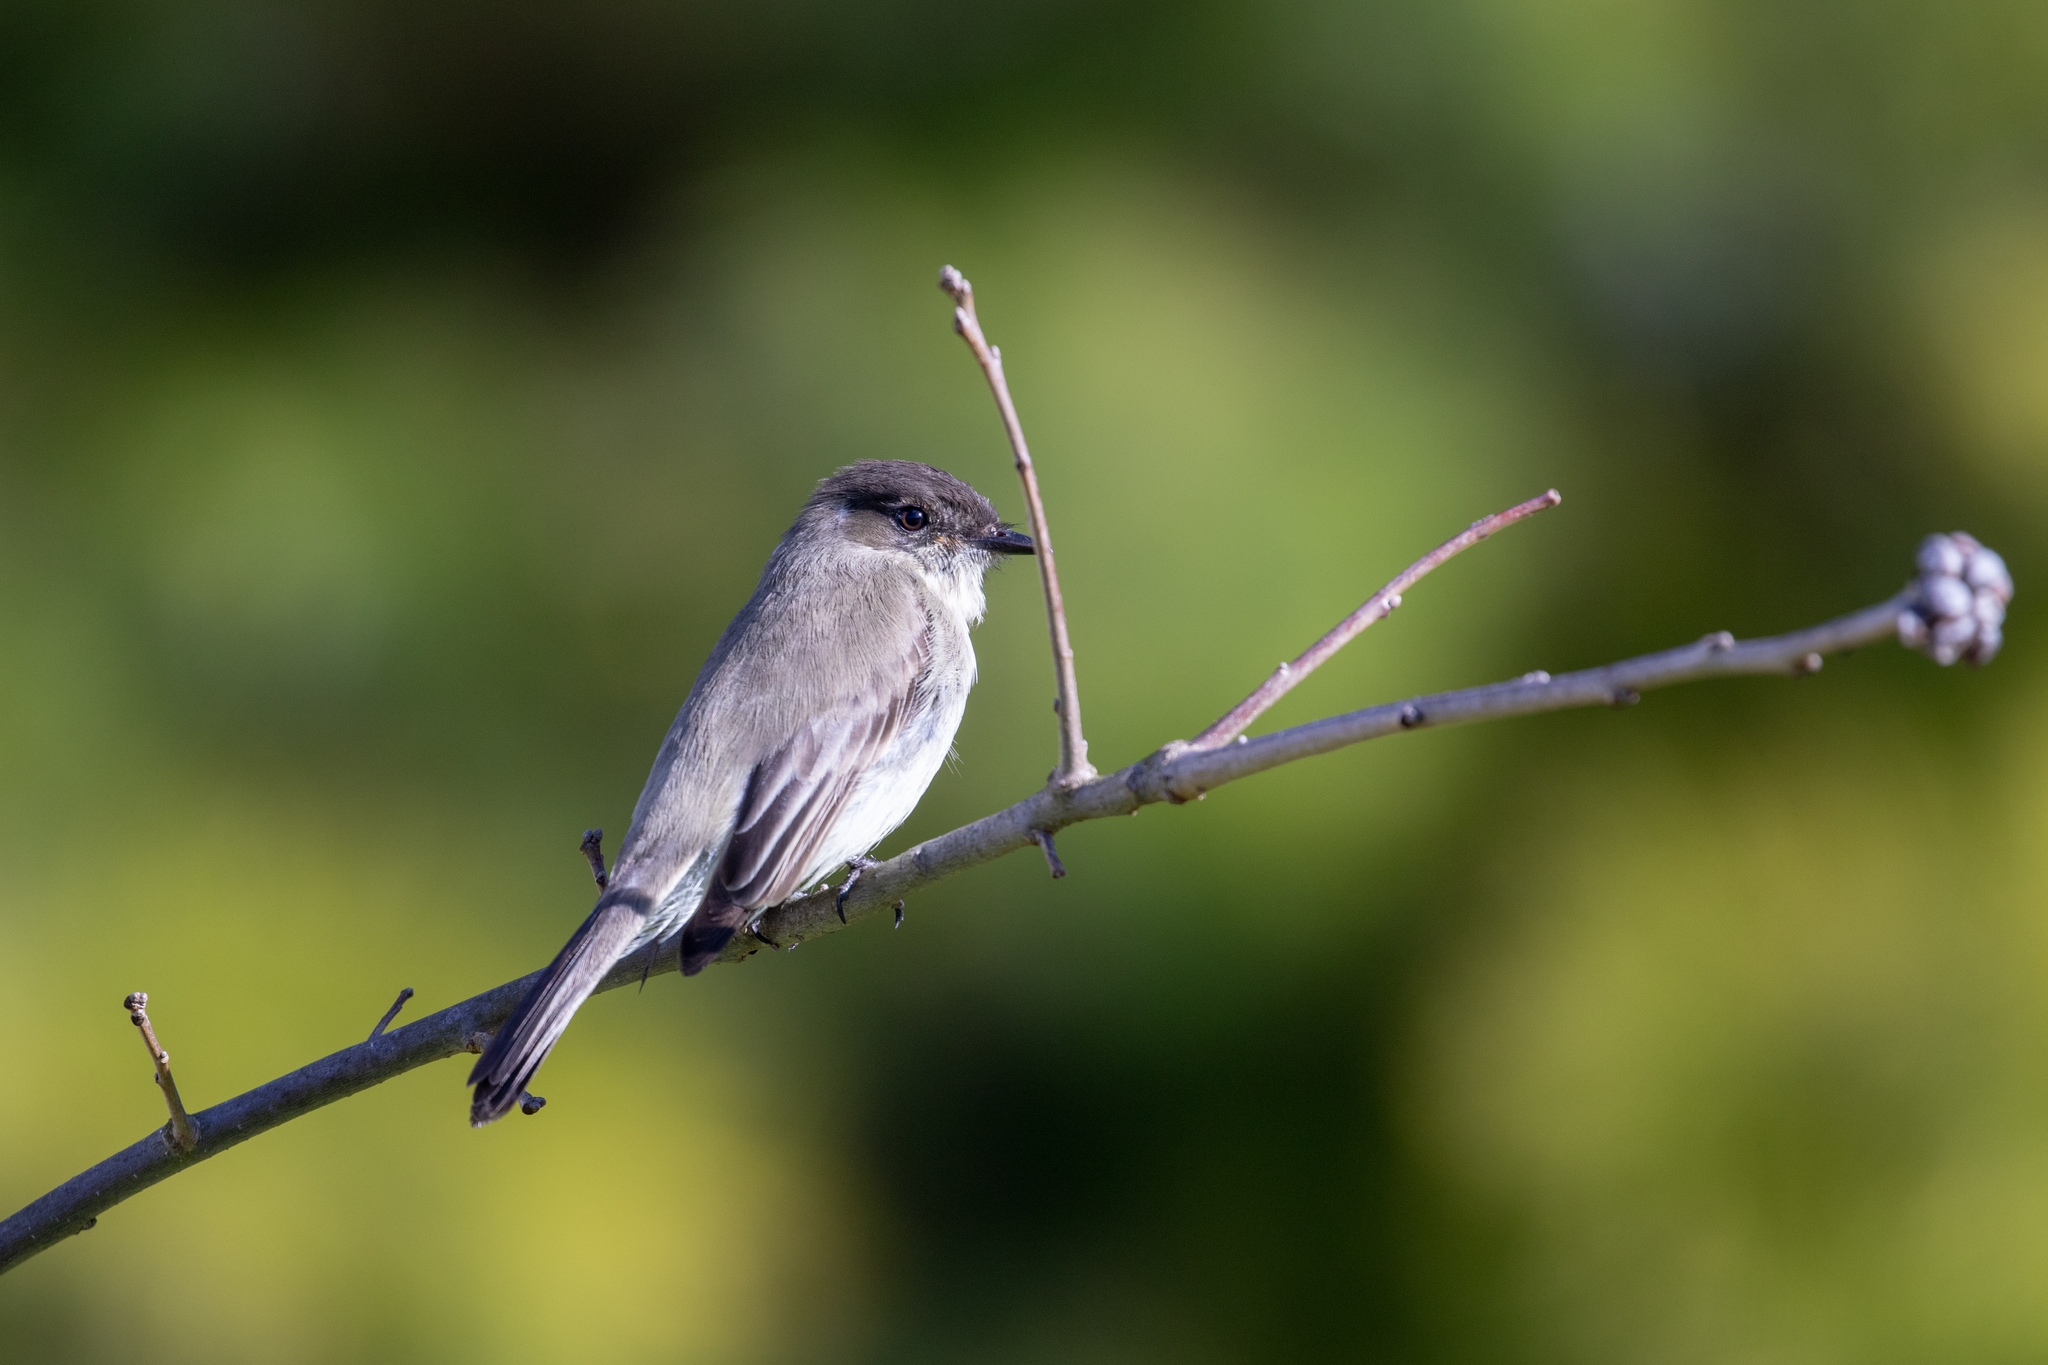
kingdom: Animalia
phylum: Chordata
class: Aves
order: Passeriformes
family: Tyrannidae
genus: Sayornis
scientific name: Sayornis phoebe
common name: Eastern phoebe
